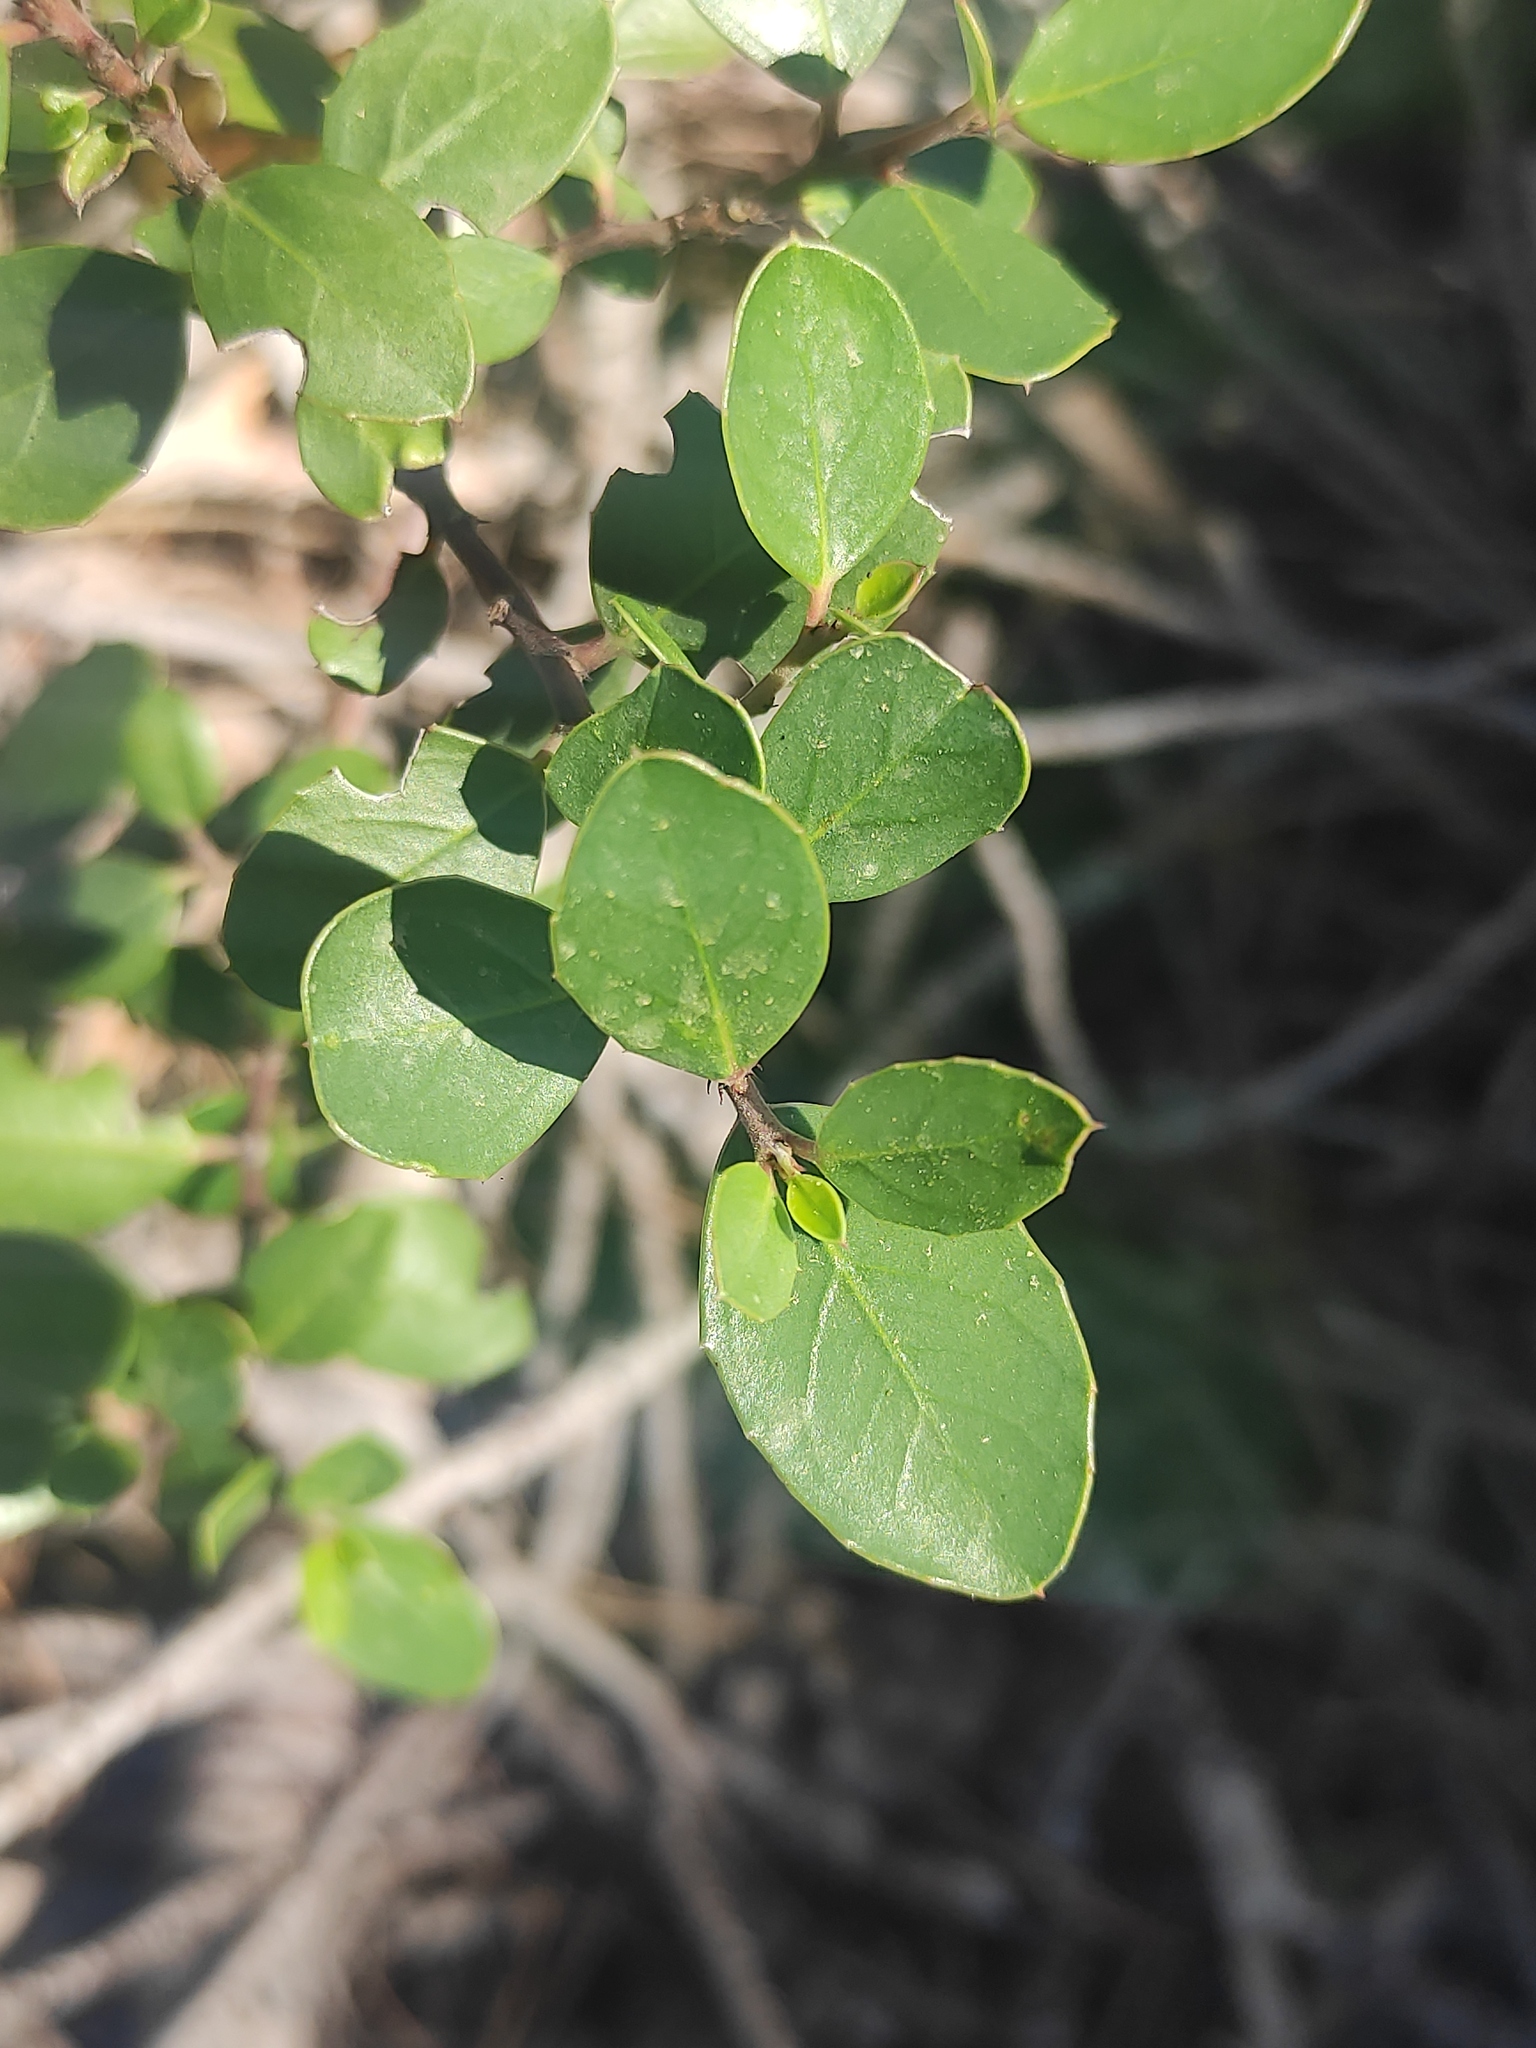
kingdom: Plantae
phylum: Tracheophyta
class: Magnoliopsida
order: Rosales
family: Rhamnaceae
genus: Rhamnus
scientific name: Rhamnus alaternus
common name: Mediterranean buckthorn
